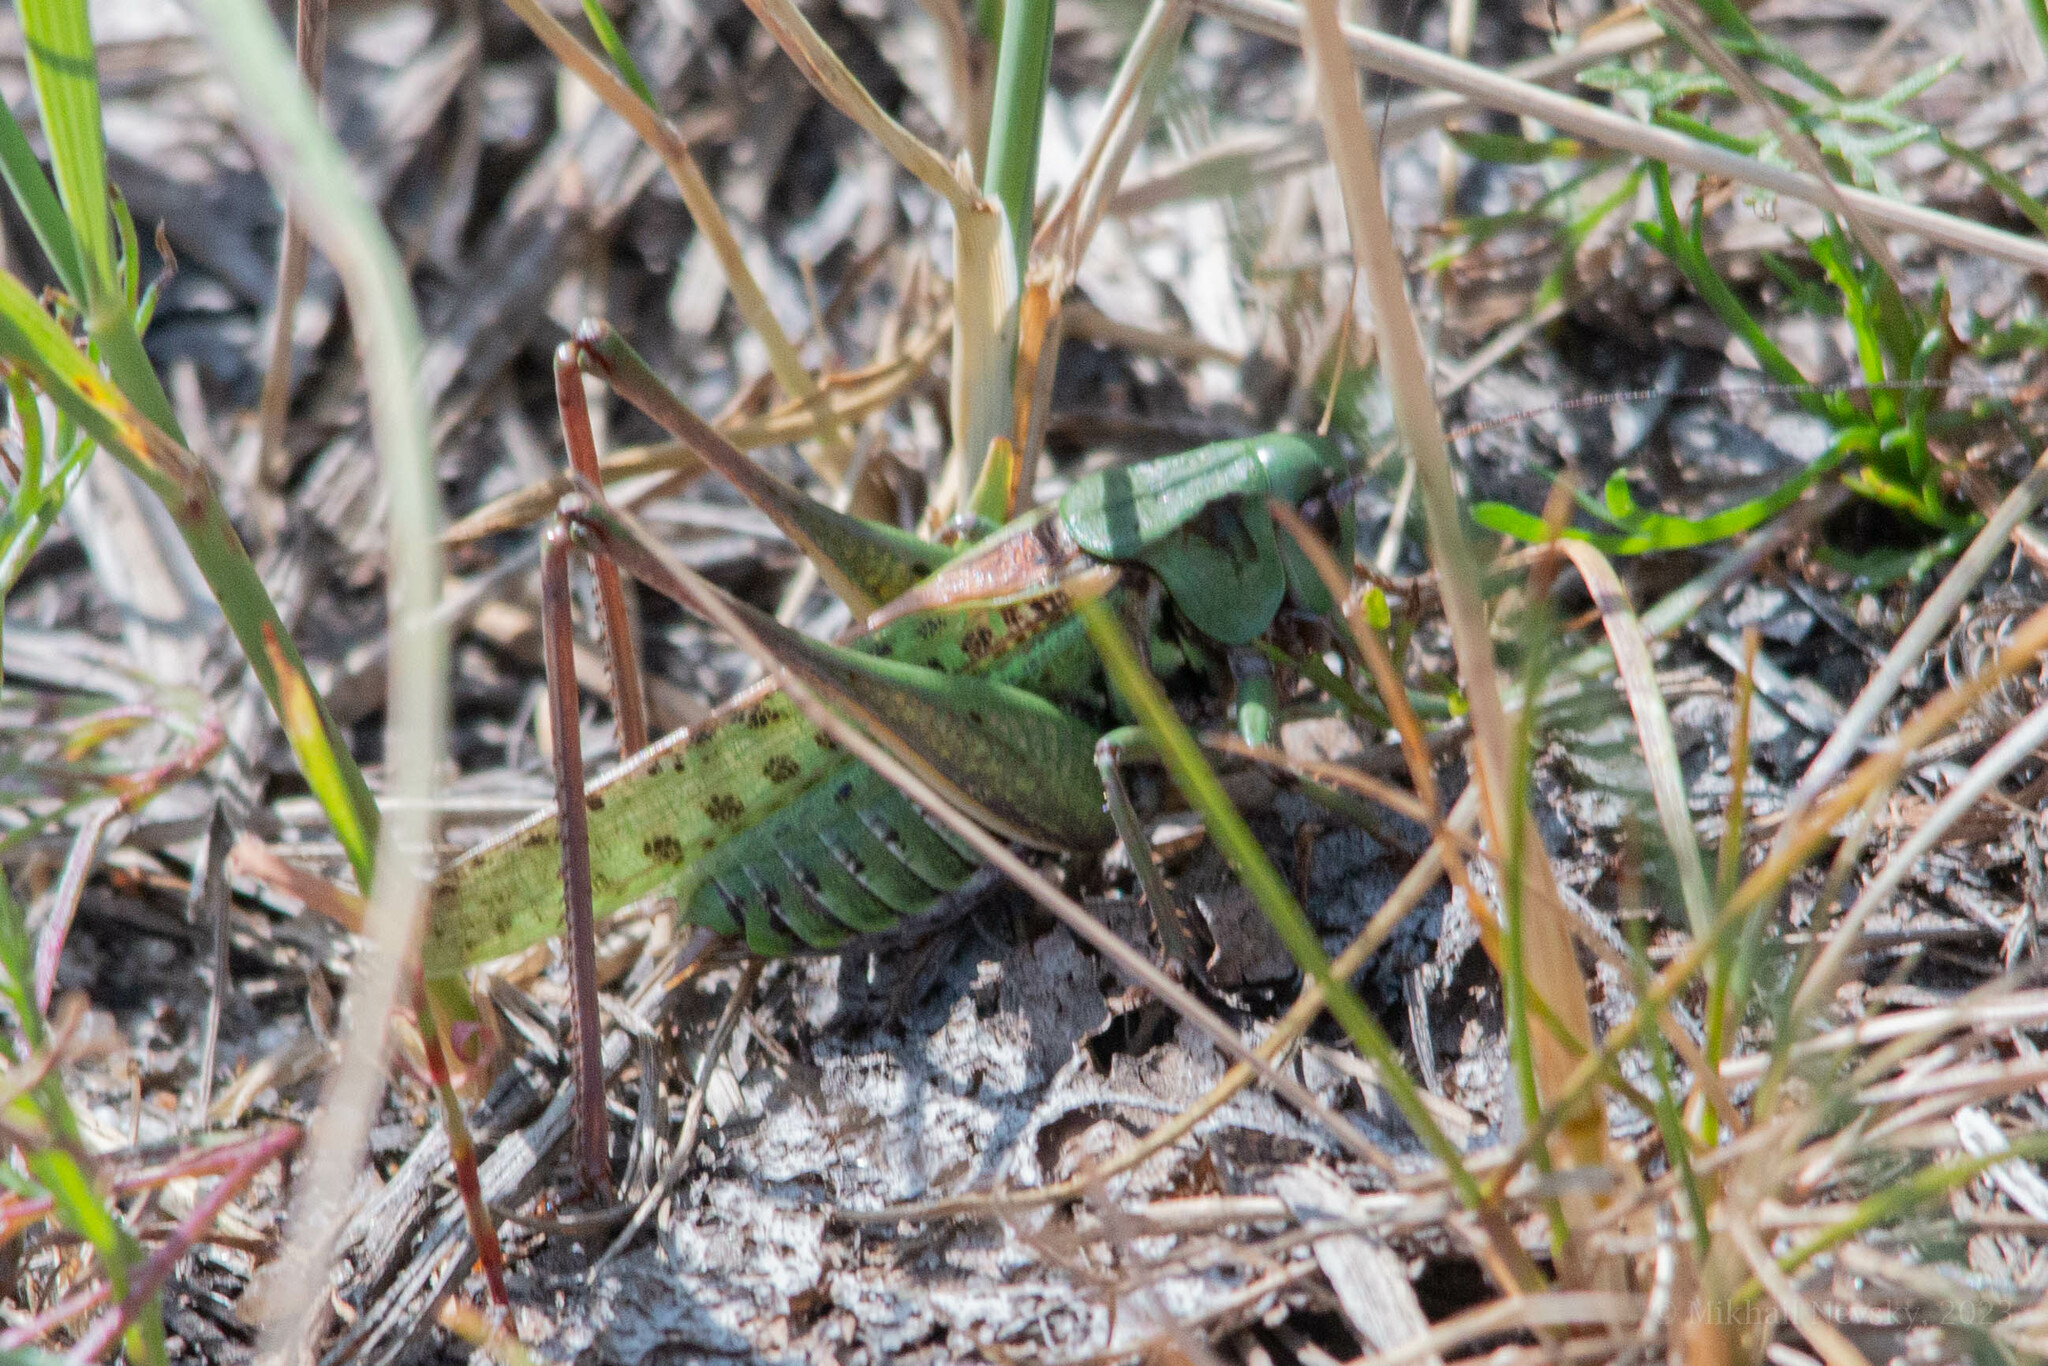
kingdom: Animalia
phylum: Arthropoda
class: Insecta
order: Orthoptera
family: Tettigoniidae
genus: Decticus
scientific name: Decticus verrucivorus
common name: Wart-biter
